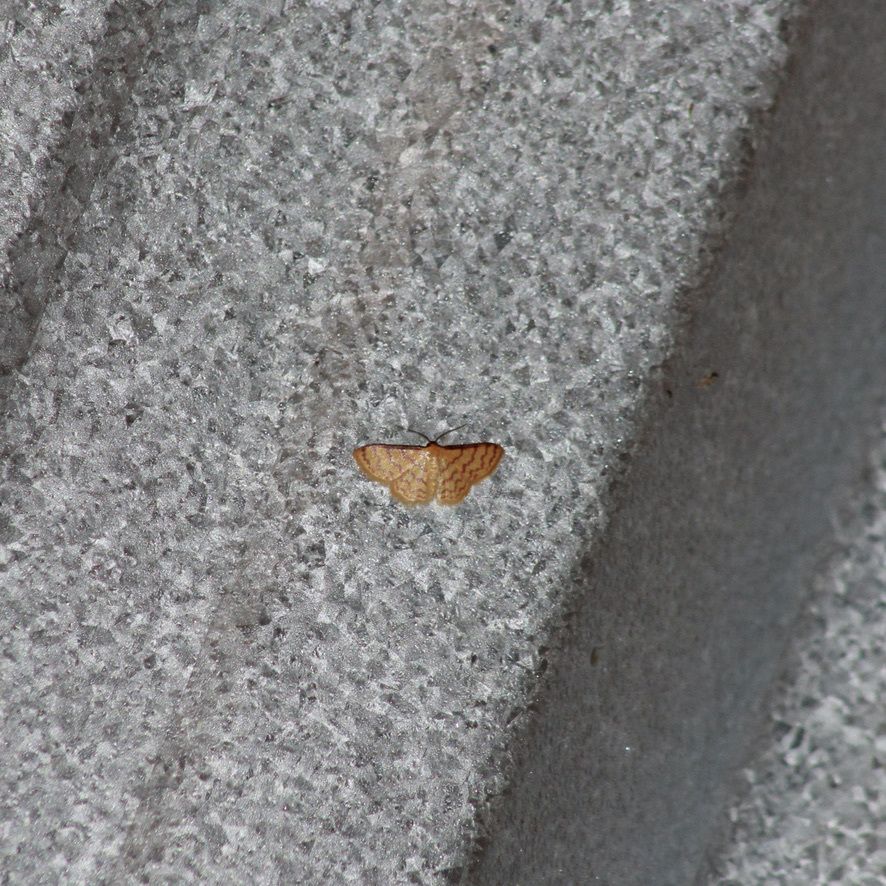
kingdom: Animalia
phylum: Arthropoda
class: Insecta
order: Lepidoptera
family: Geometridae
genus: Tricentrogyna
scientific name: Tricentrogyna deportata
